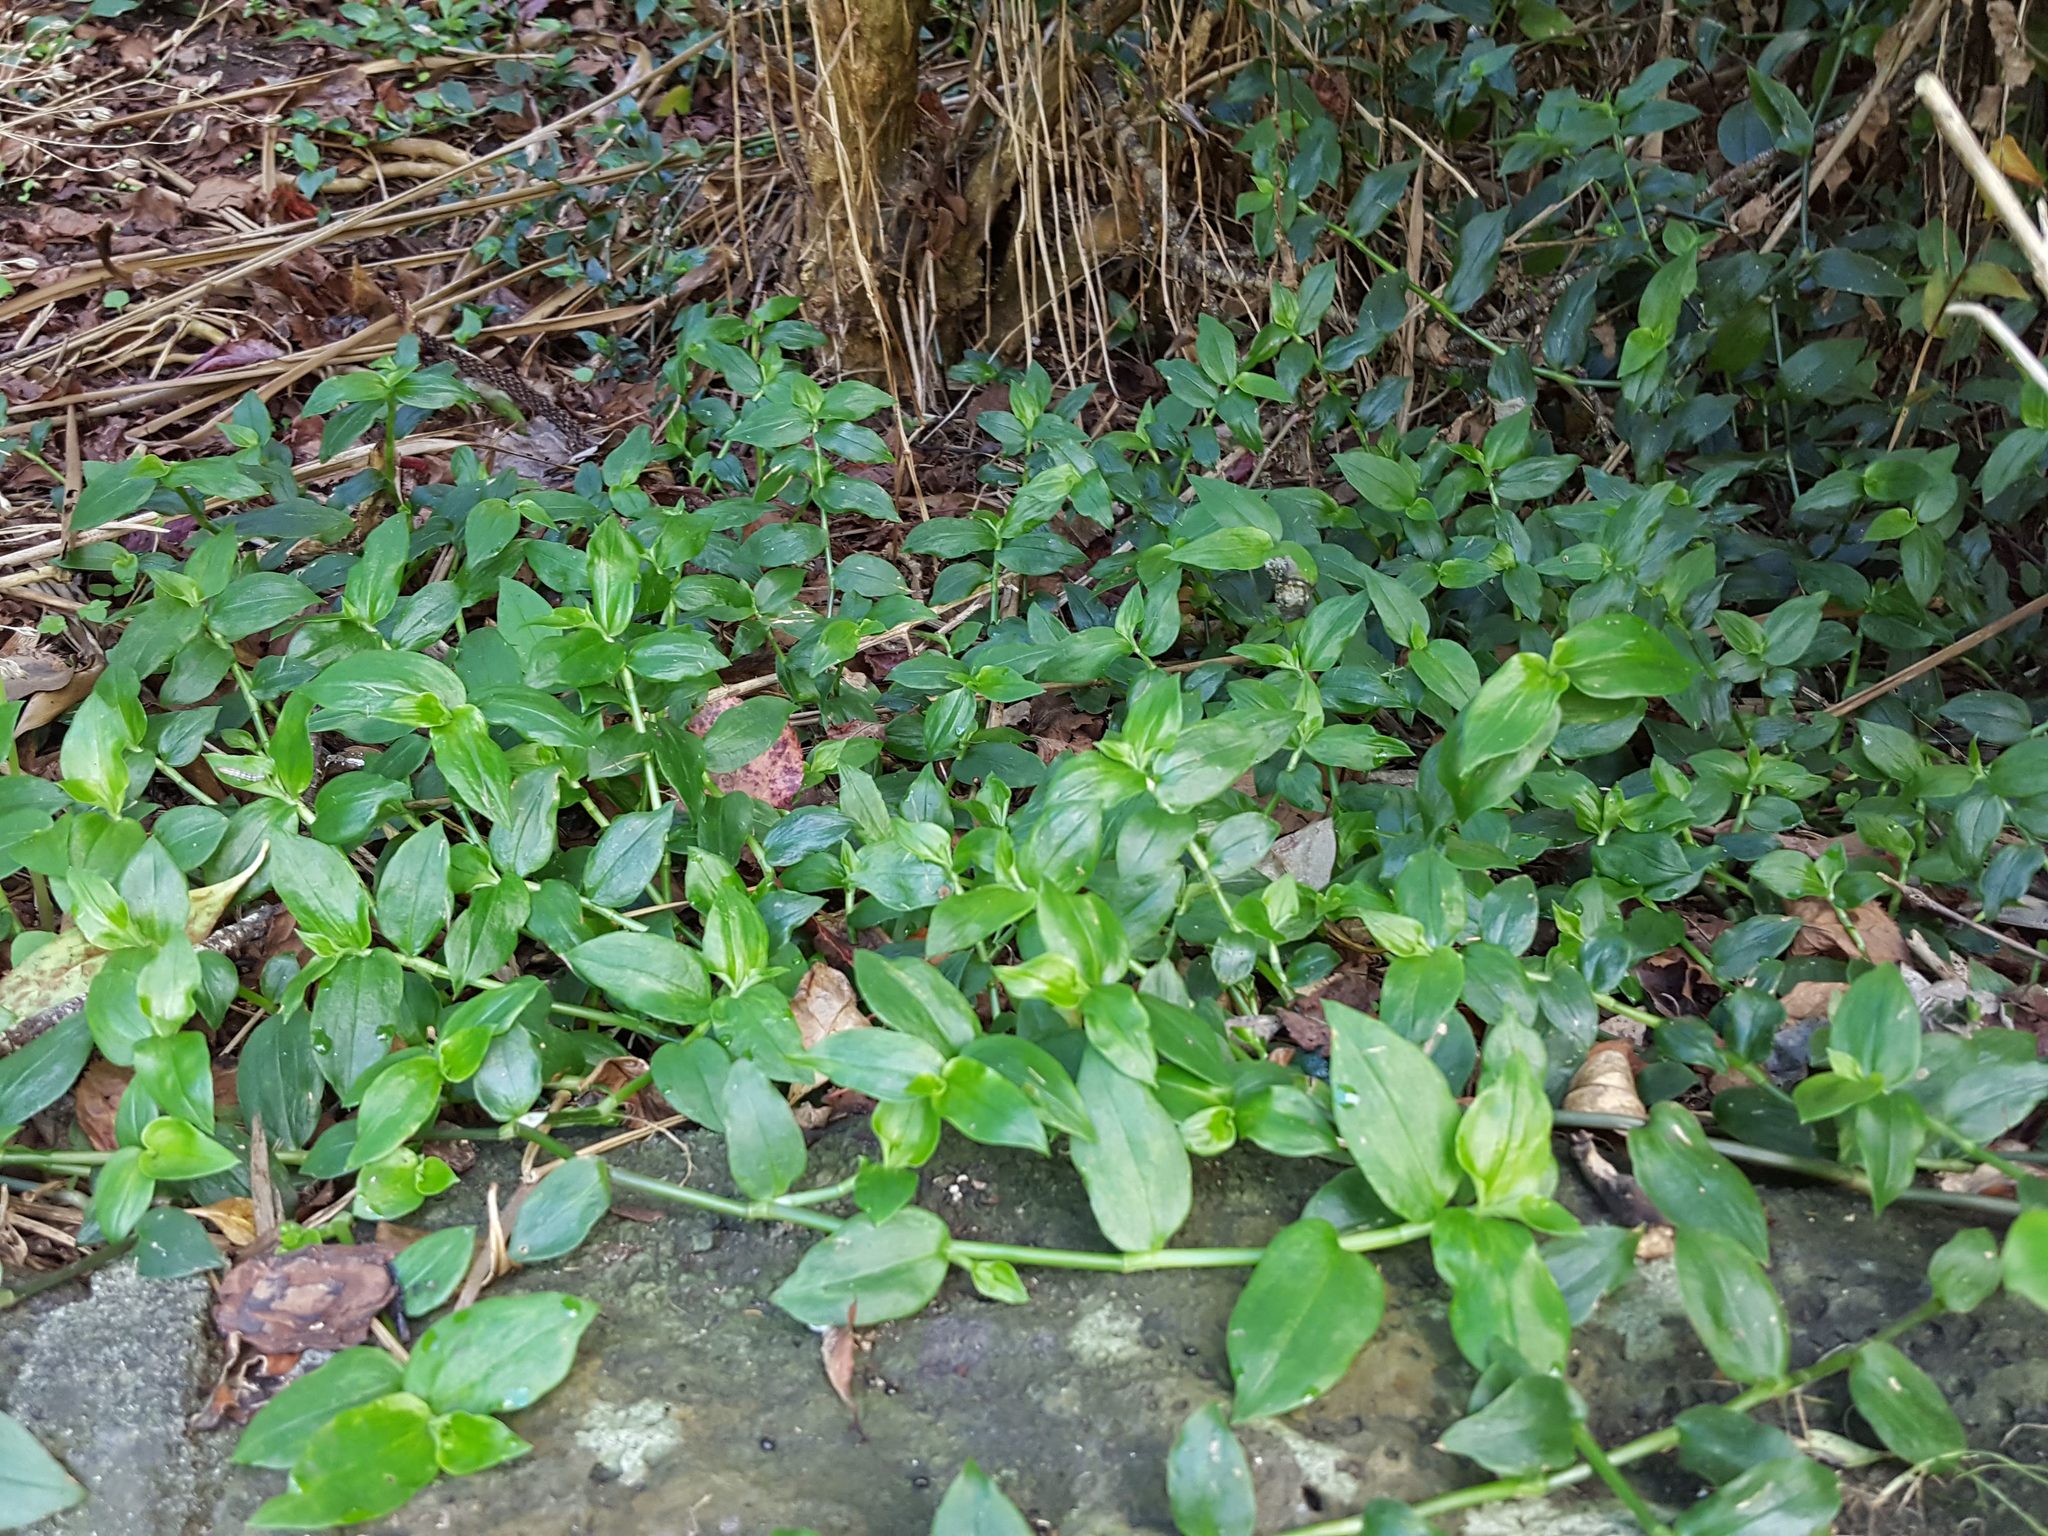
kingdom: Plantae
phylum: Tracheophyta
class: Liliopsida
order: Commelinales
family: Commelinaceae
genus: Tradescantia
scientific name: Tradescantia fluminensis
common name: Wandering-jew
